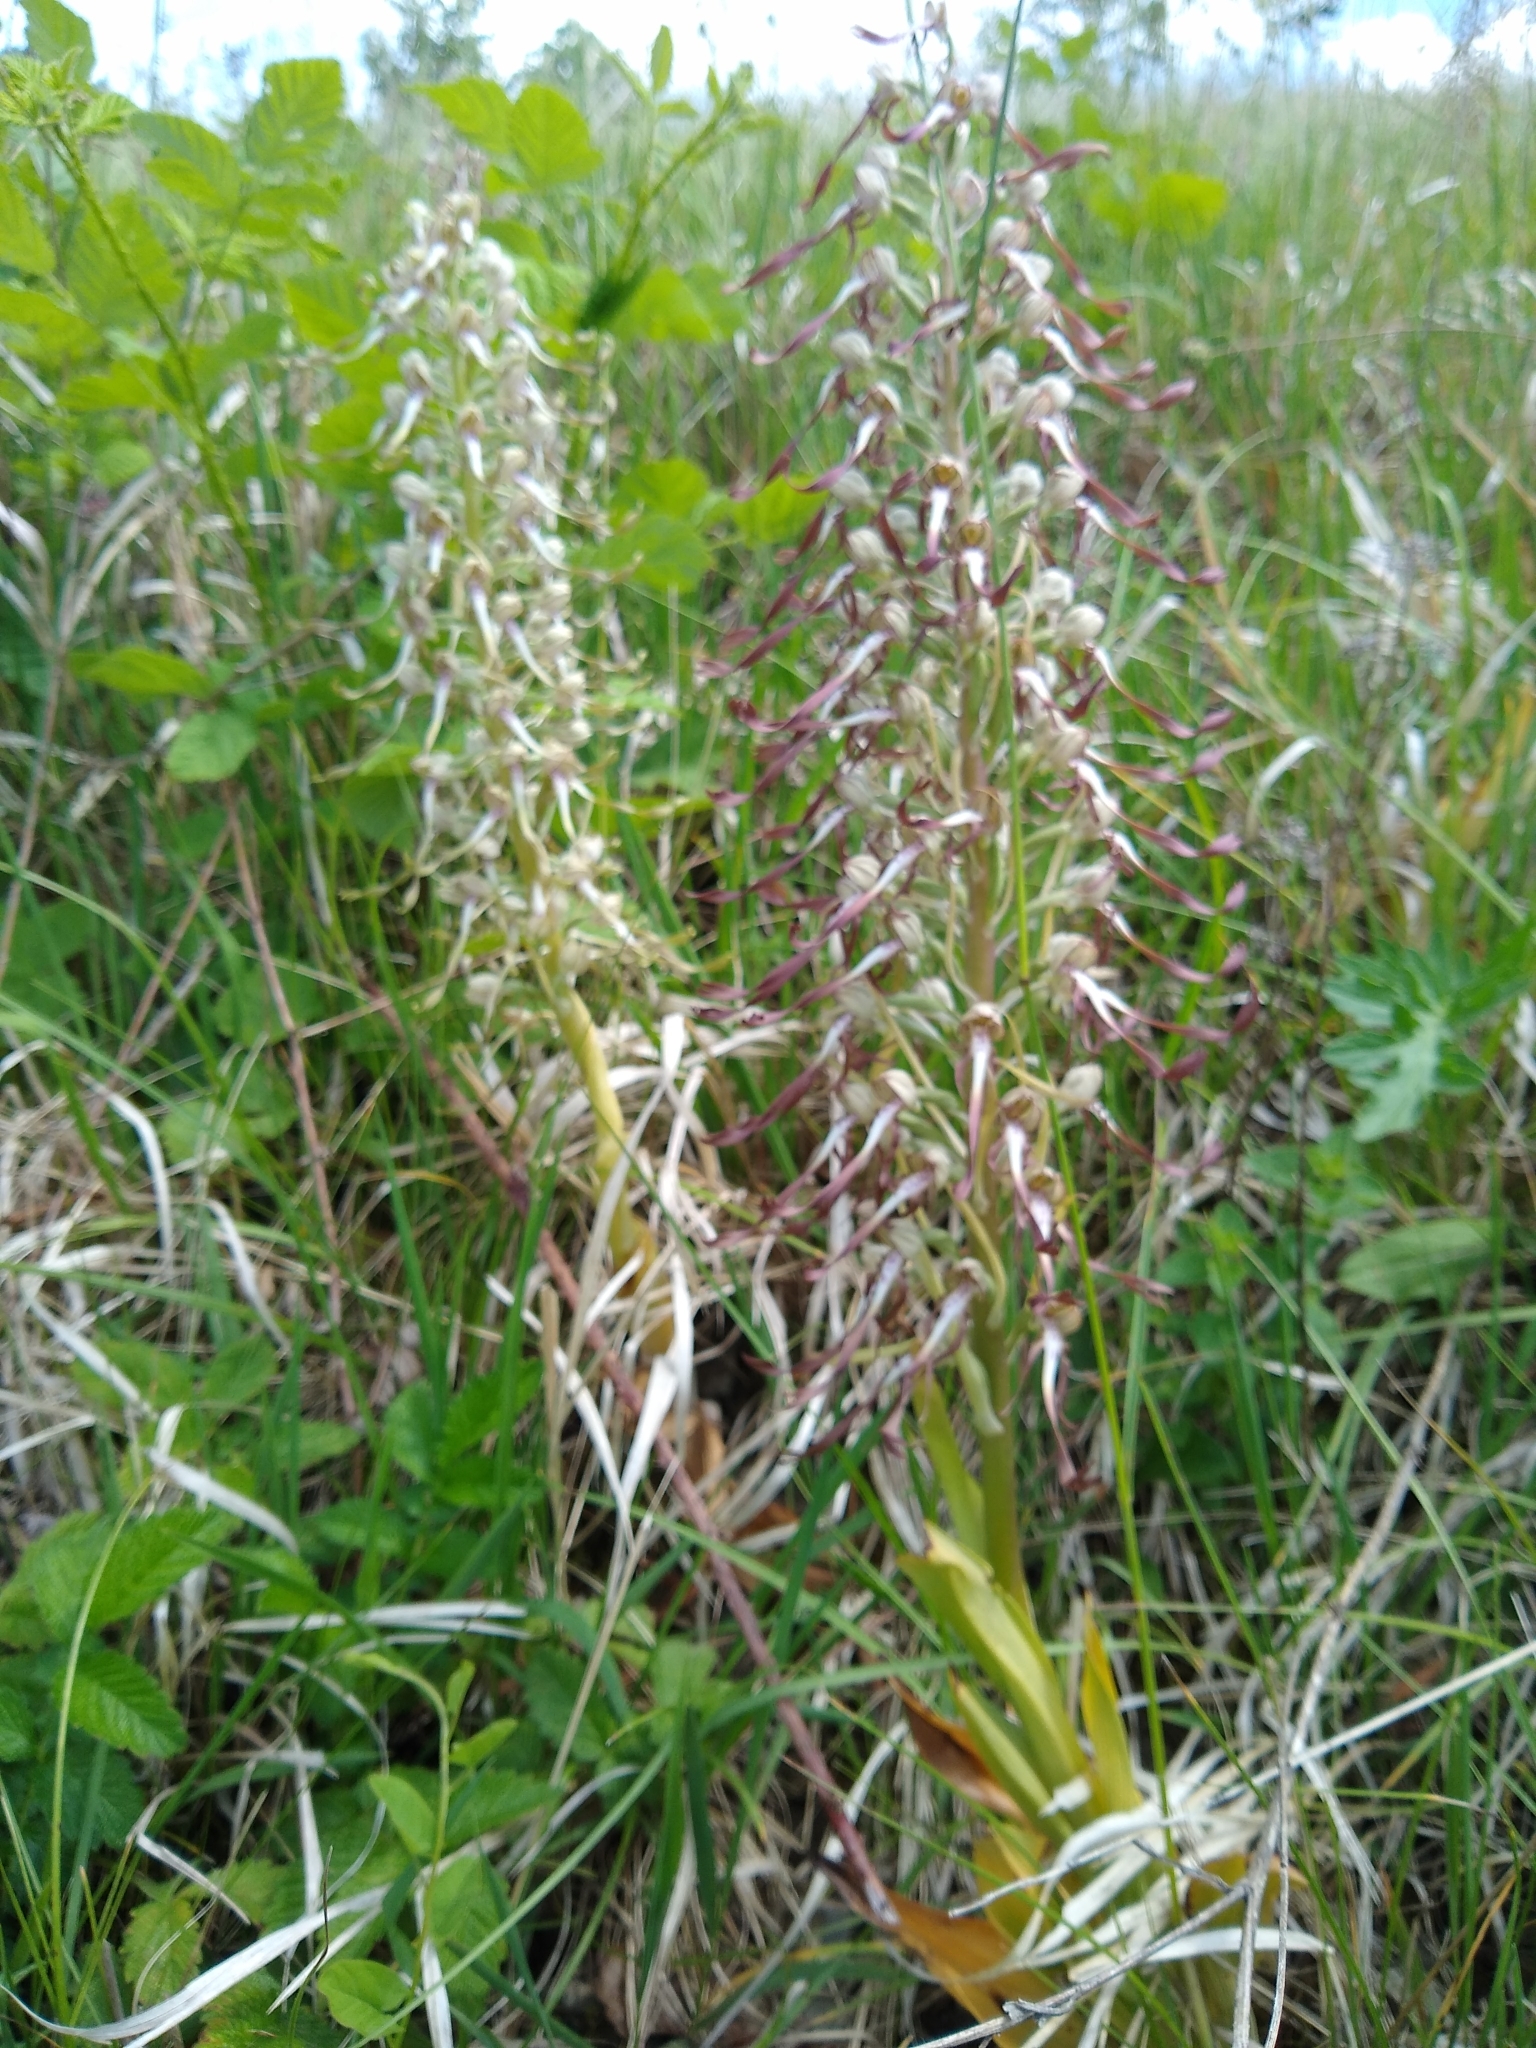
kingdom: Plantae
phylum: Tracheophyta
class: Liliopsida
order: Asparagales
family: Orchidaceae
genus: Himantoglossum
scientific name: Himantoglossum hircinum
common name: Lizard orchid
